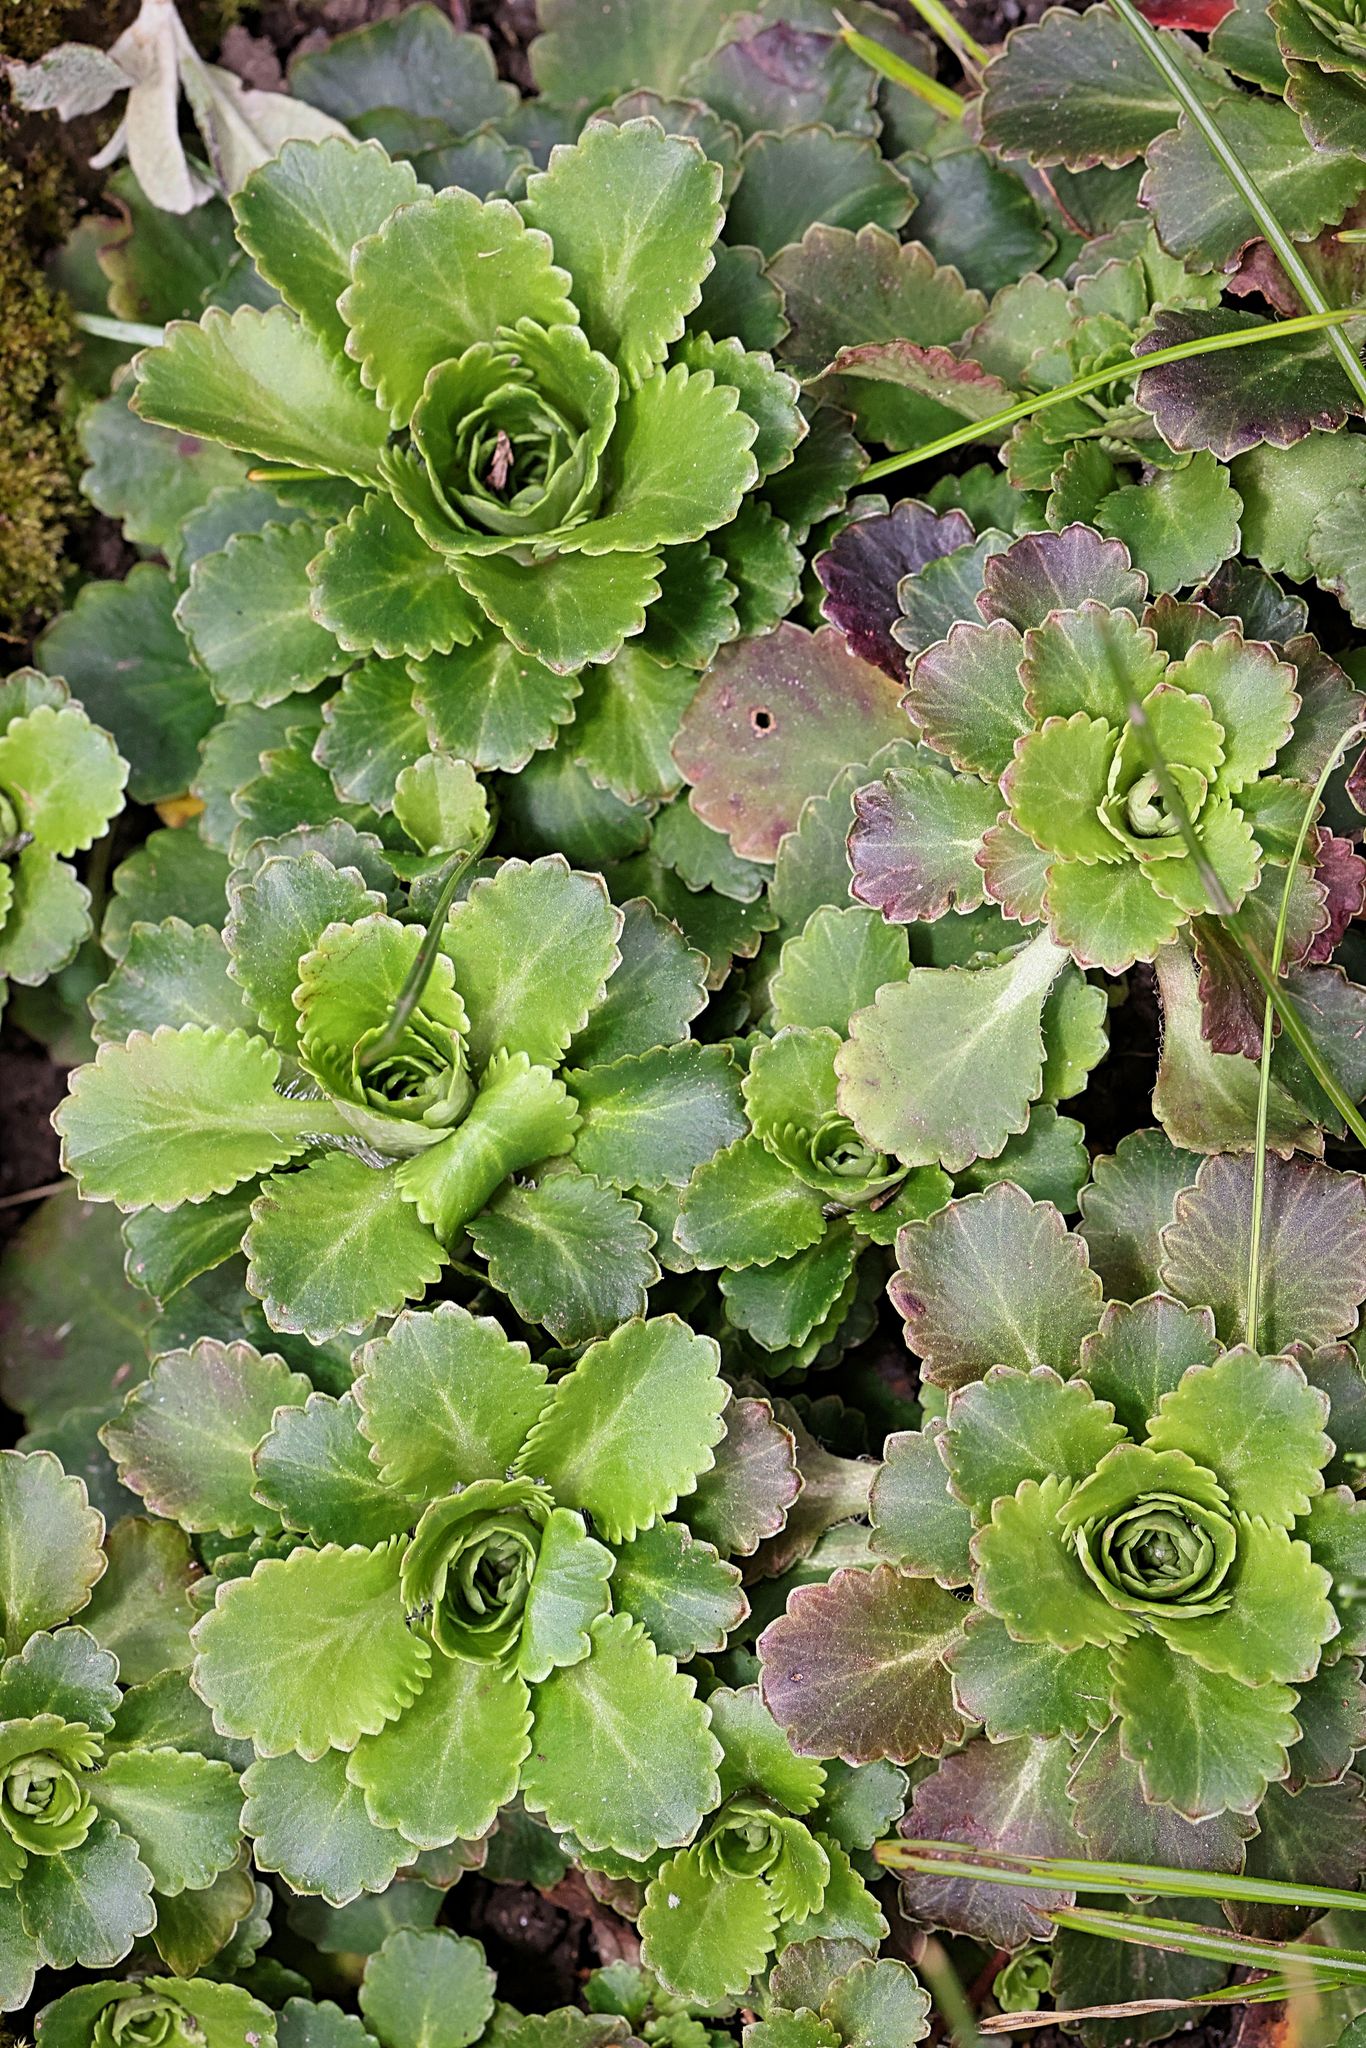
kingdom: Plantae
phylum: Tracheophyta
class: Magnoliopsida
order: Saxifragales
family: Saxifragaceae
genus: Saxifraga
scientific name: Saxifraga urbium
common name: Londonpride
